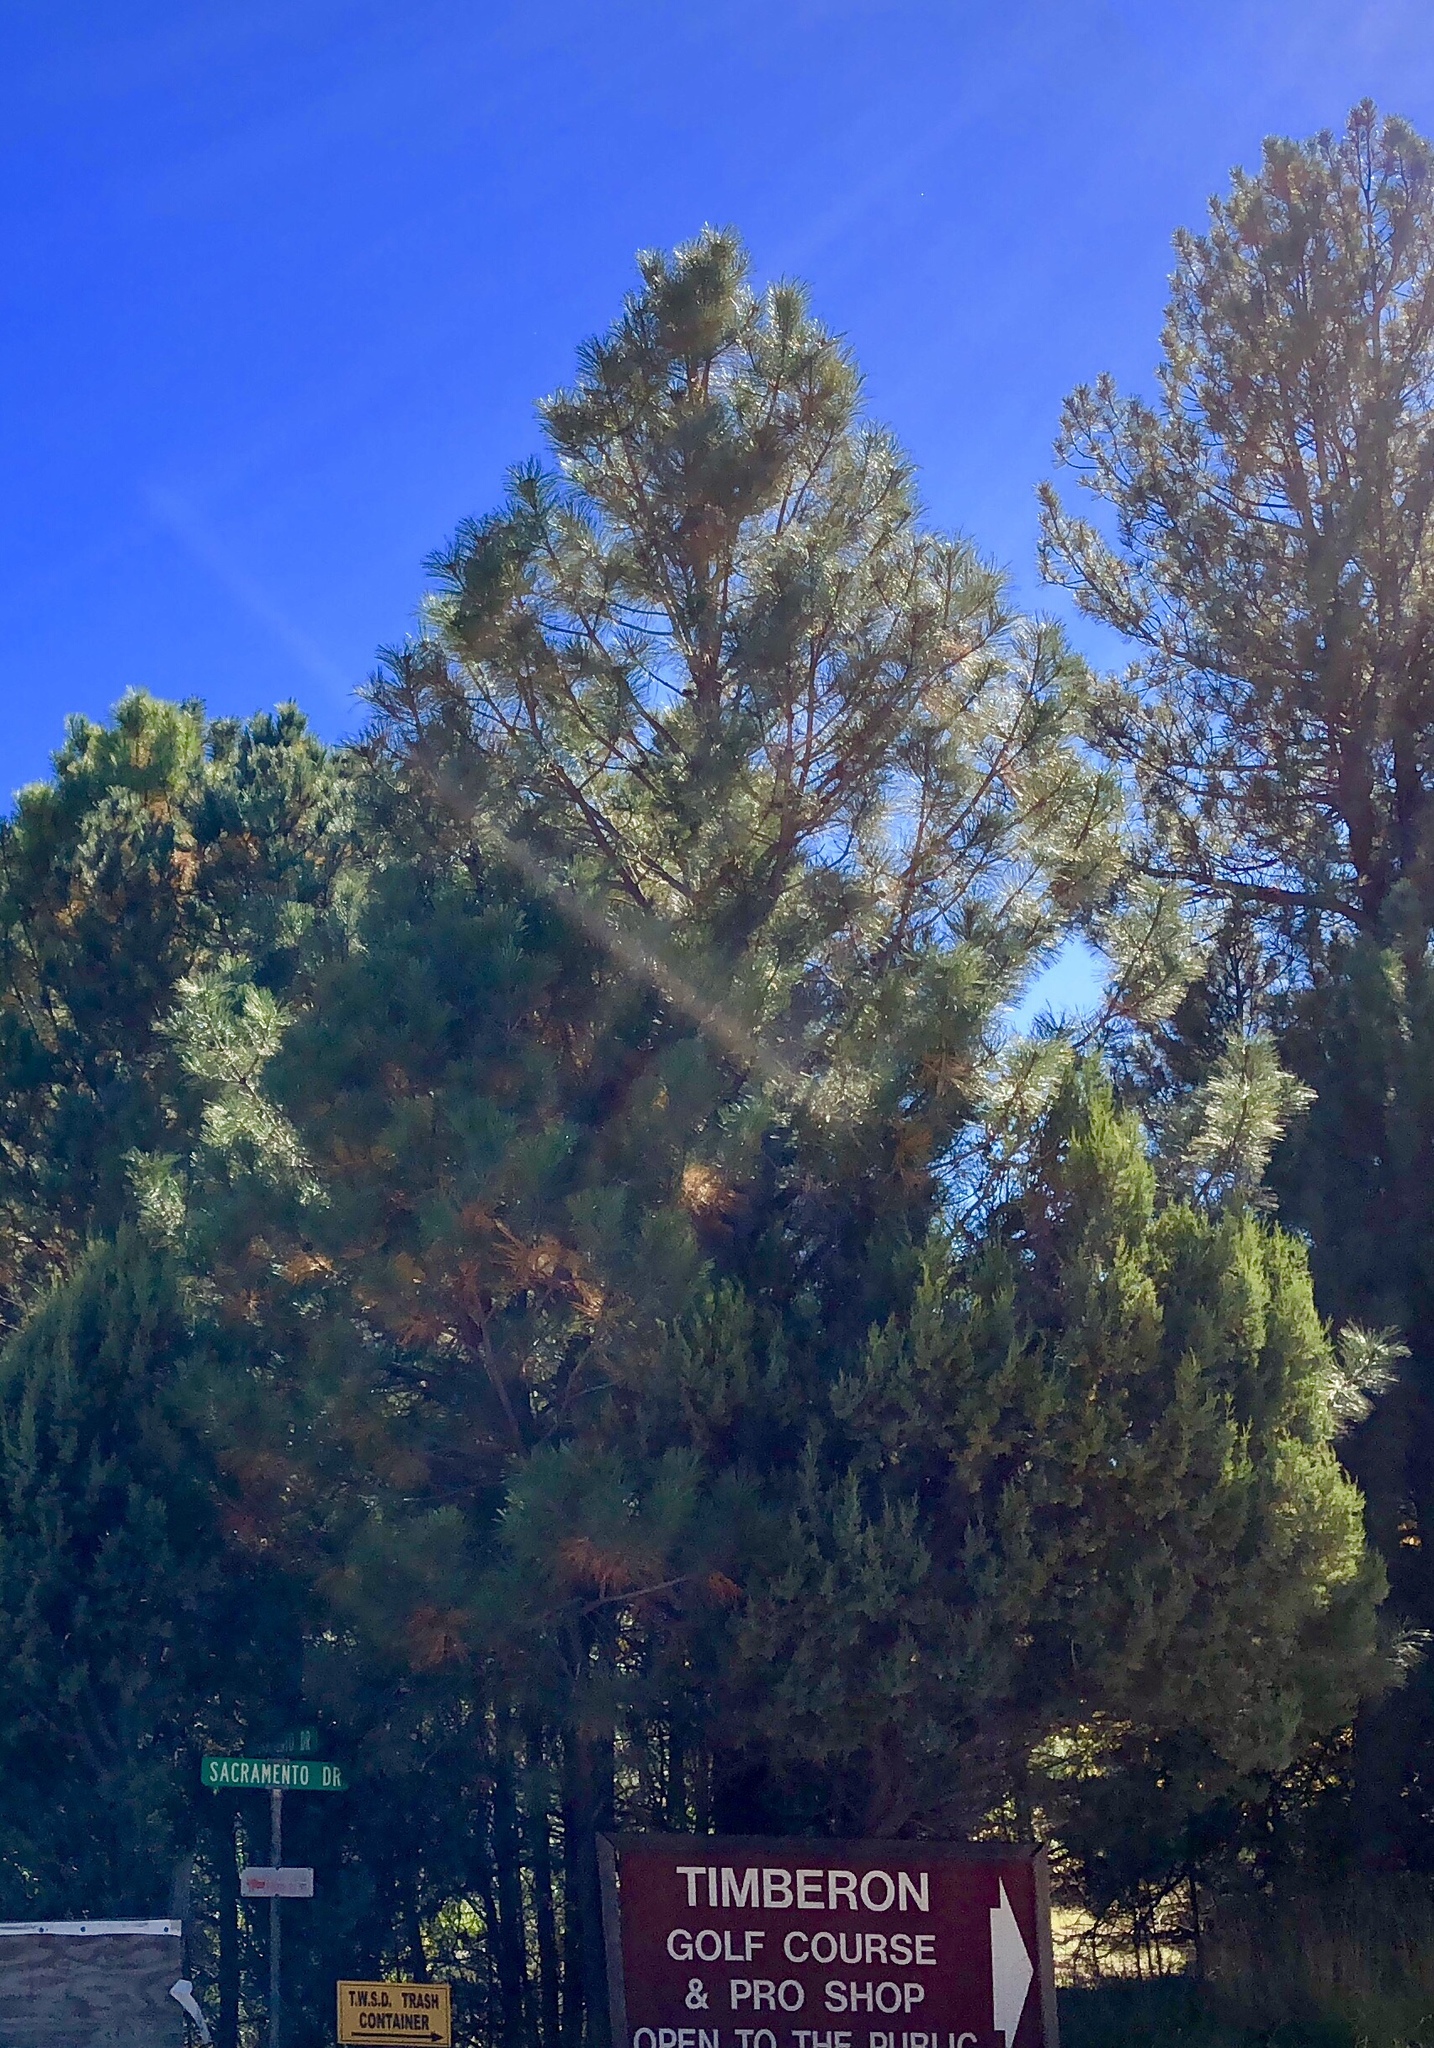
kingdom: Plantae
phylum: Tracheophyta
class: Pinopsida
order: Pinales
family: Pinaceae
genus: Pinus
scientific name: Pinus ponderosa
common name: Western yellow-pine
